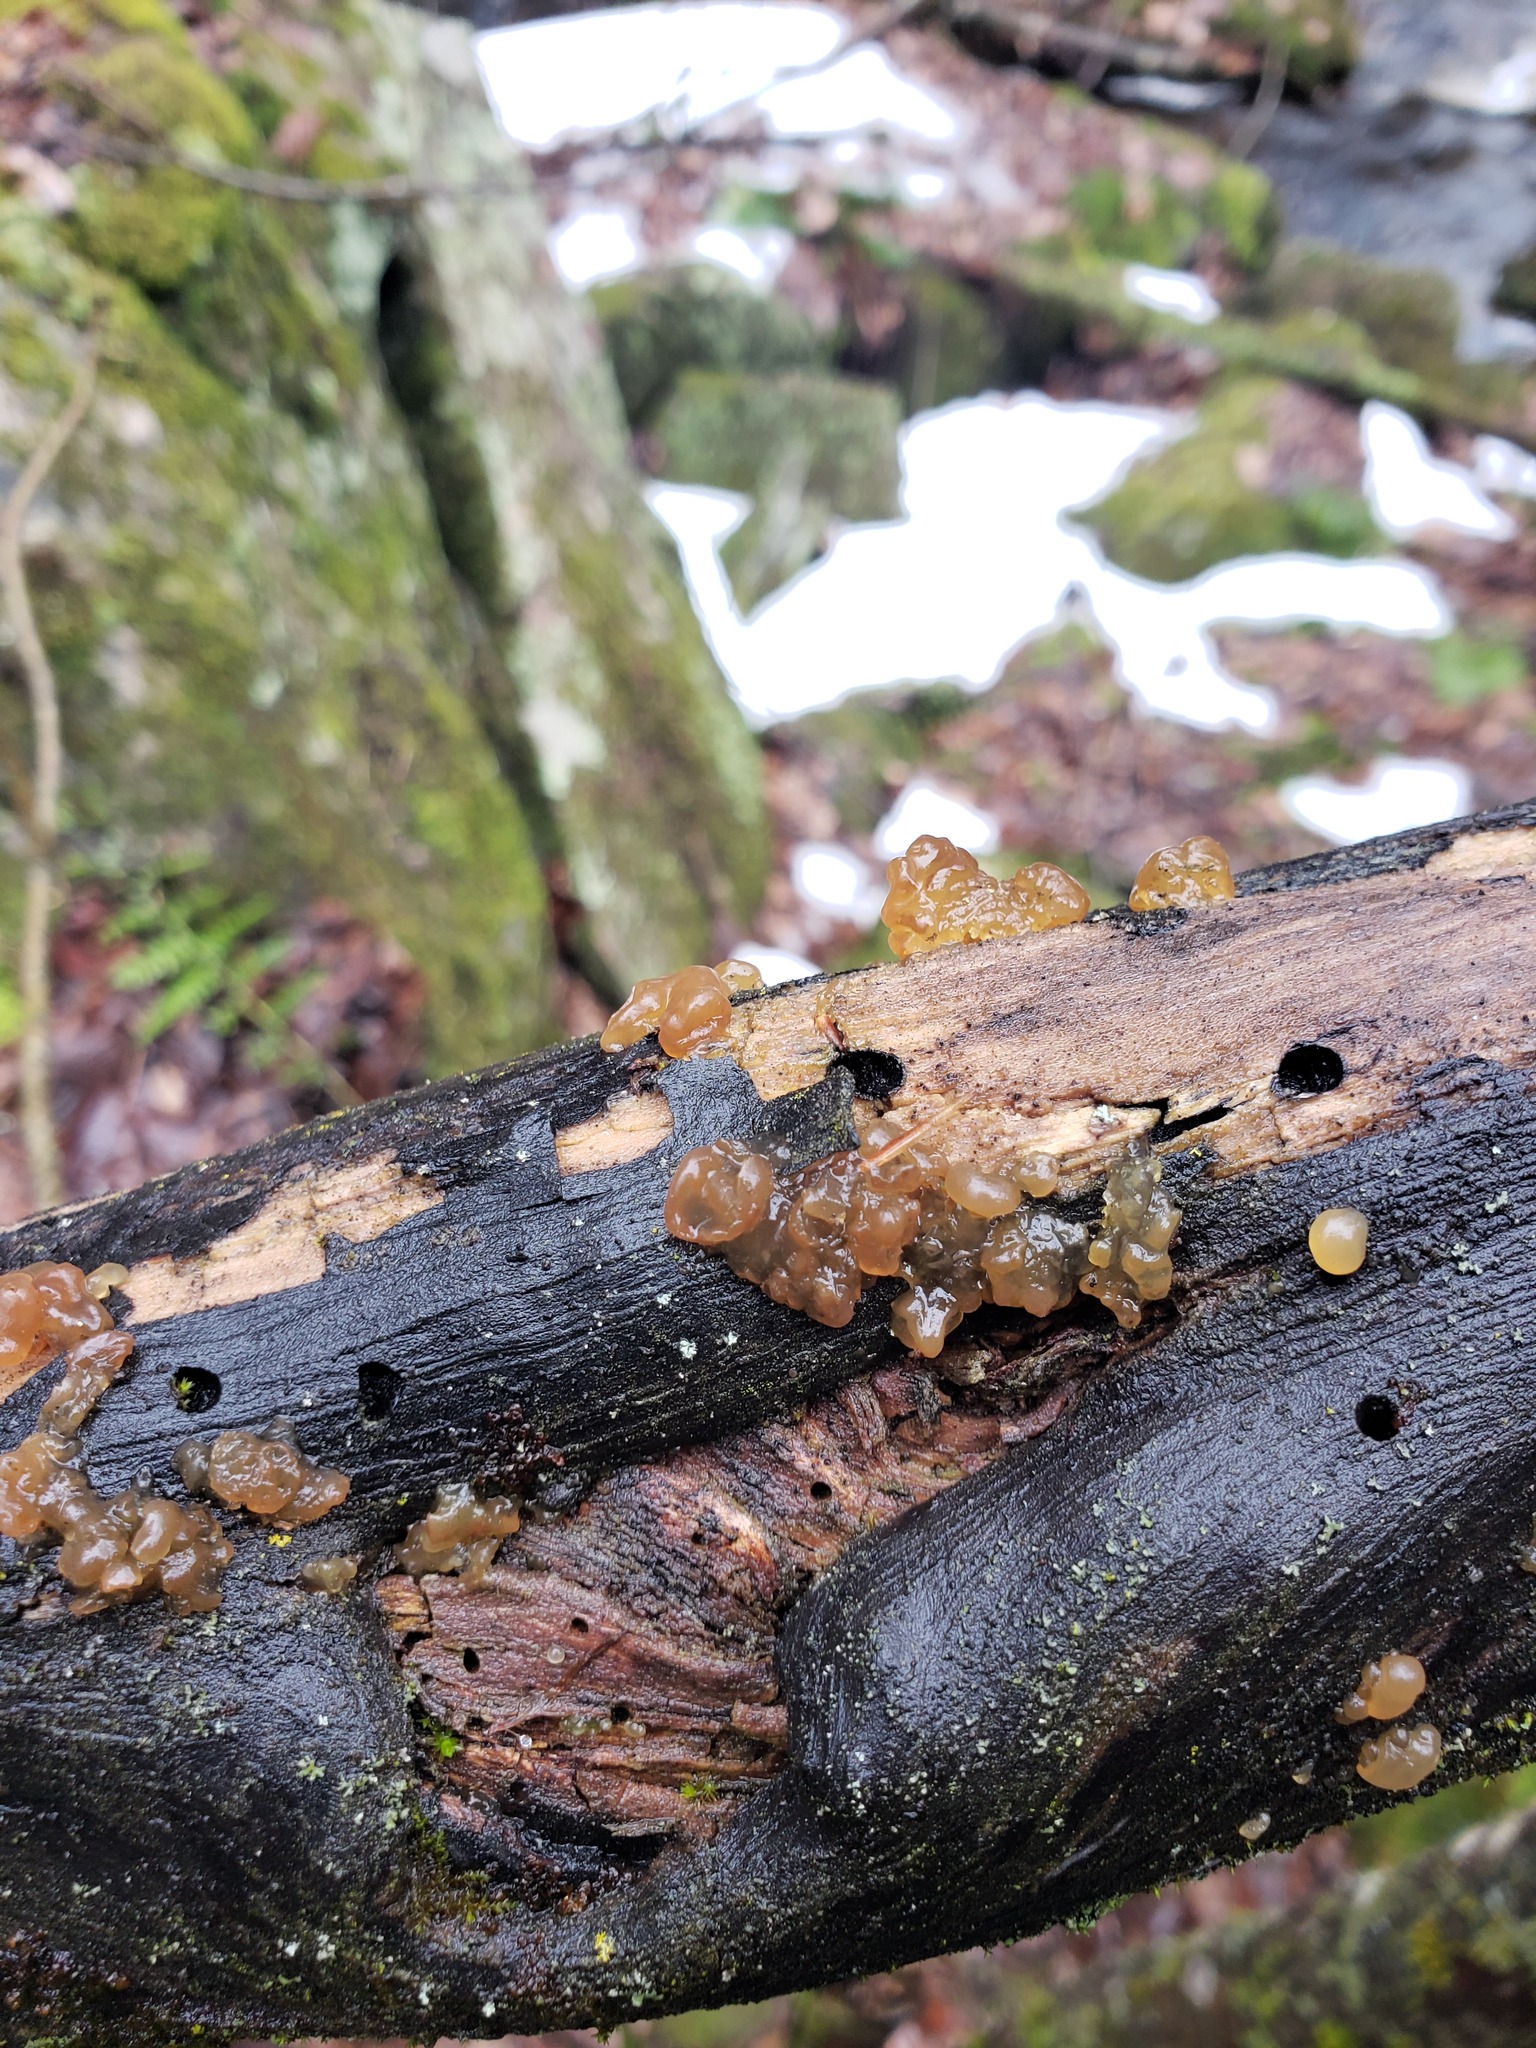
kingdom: Fungi
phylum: Basidiomycota
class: Agaricomycetes
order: Auriculariales
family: Hyaloriaceae
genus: Myxarium
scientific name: Myxarium nucleatum
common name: Crystal brain fungus
